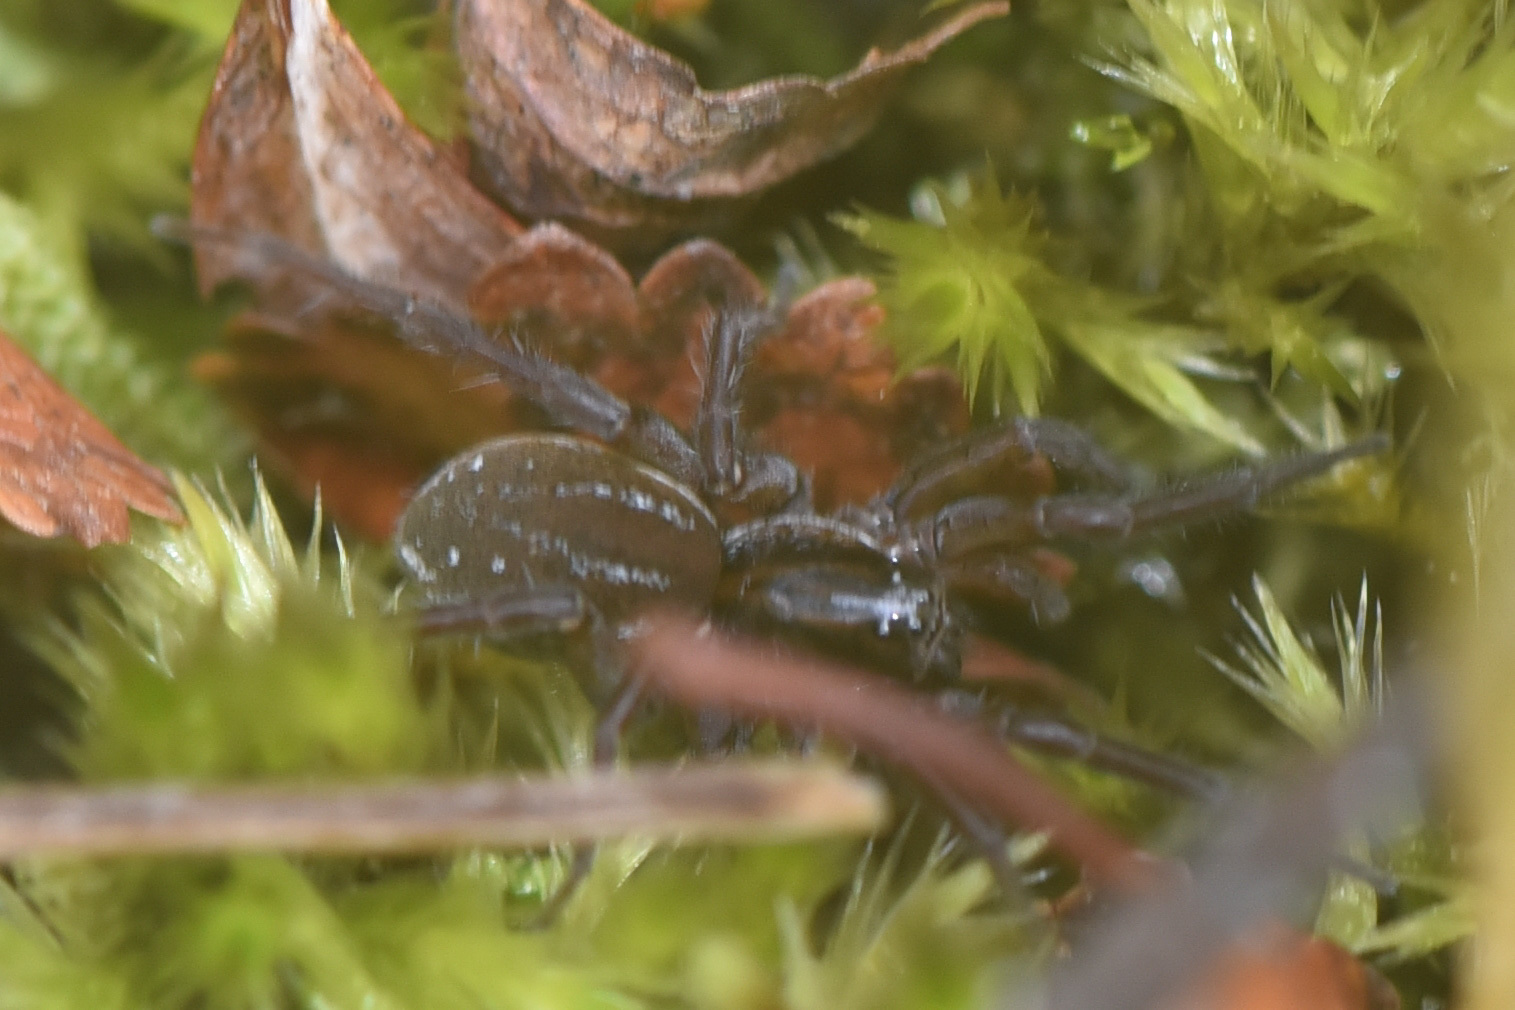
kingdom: Animalia
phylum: Arthropoda
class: Arachnida
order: Araneae
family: Lycosidae
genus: Pirata
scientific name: Pirata piraticus
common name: Pirate otter spider
